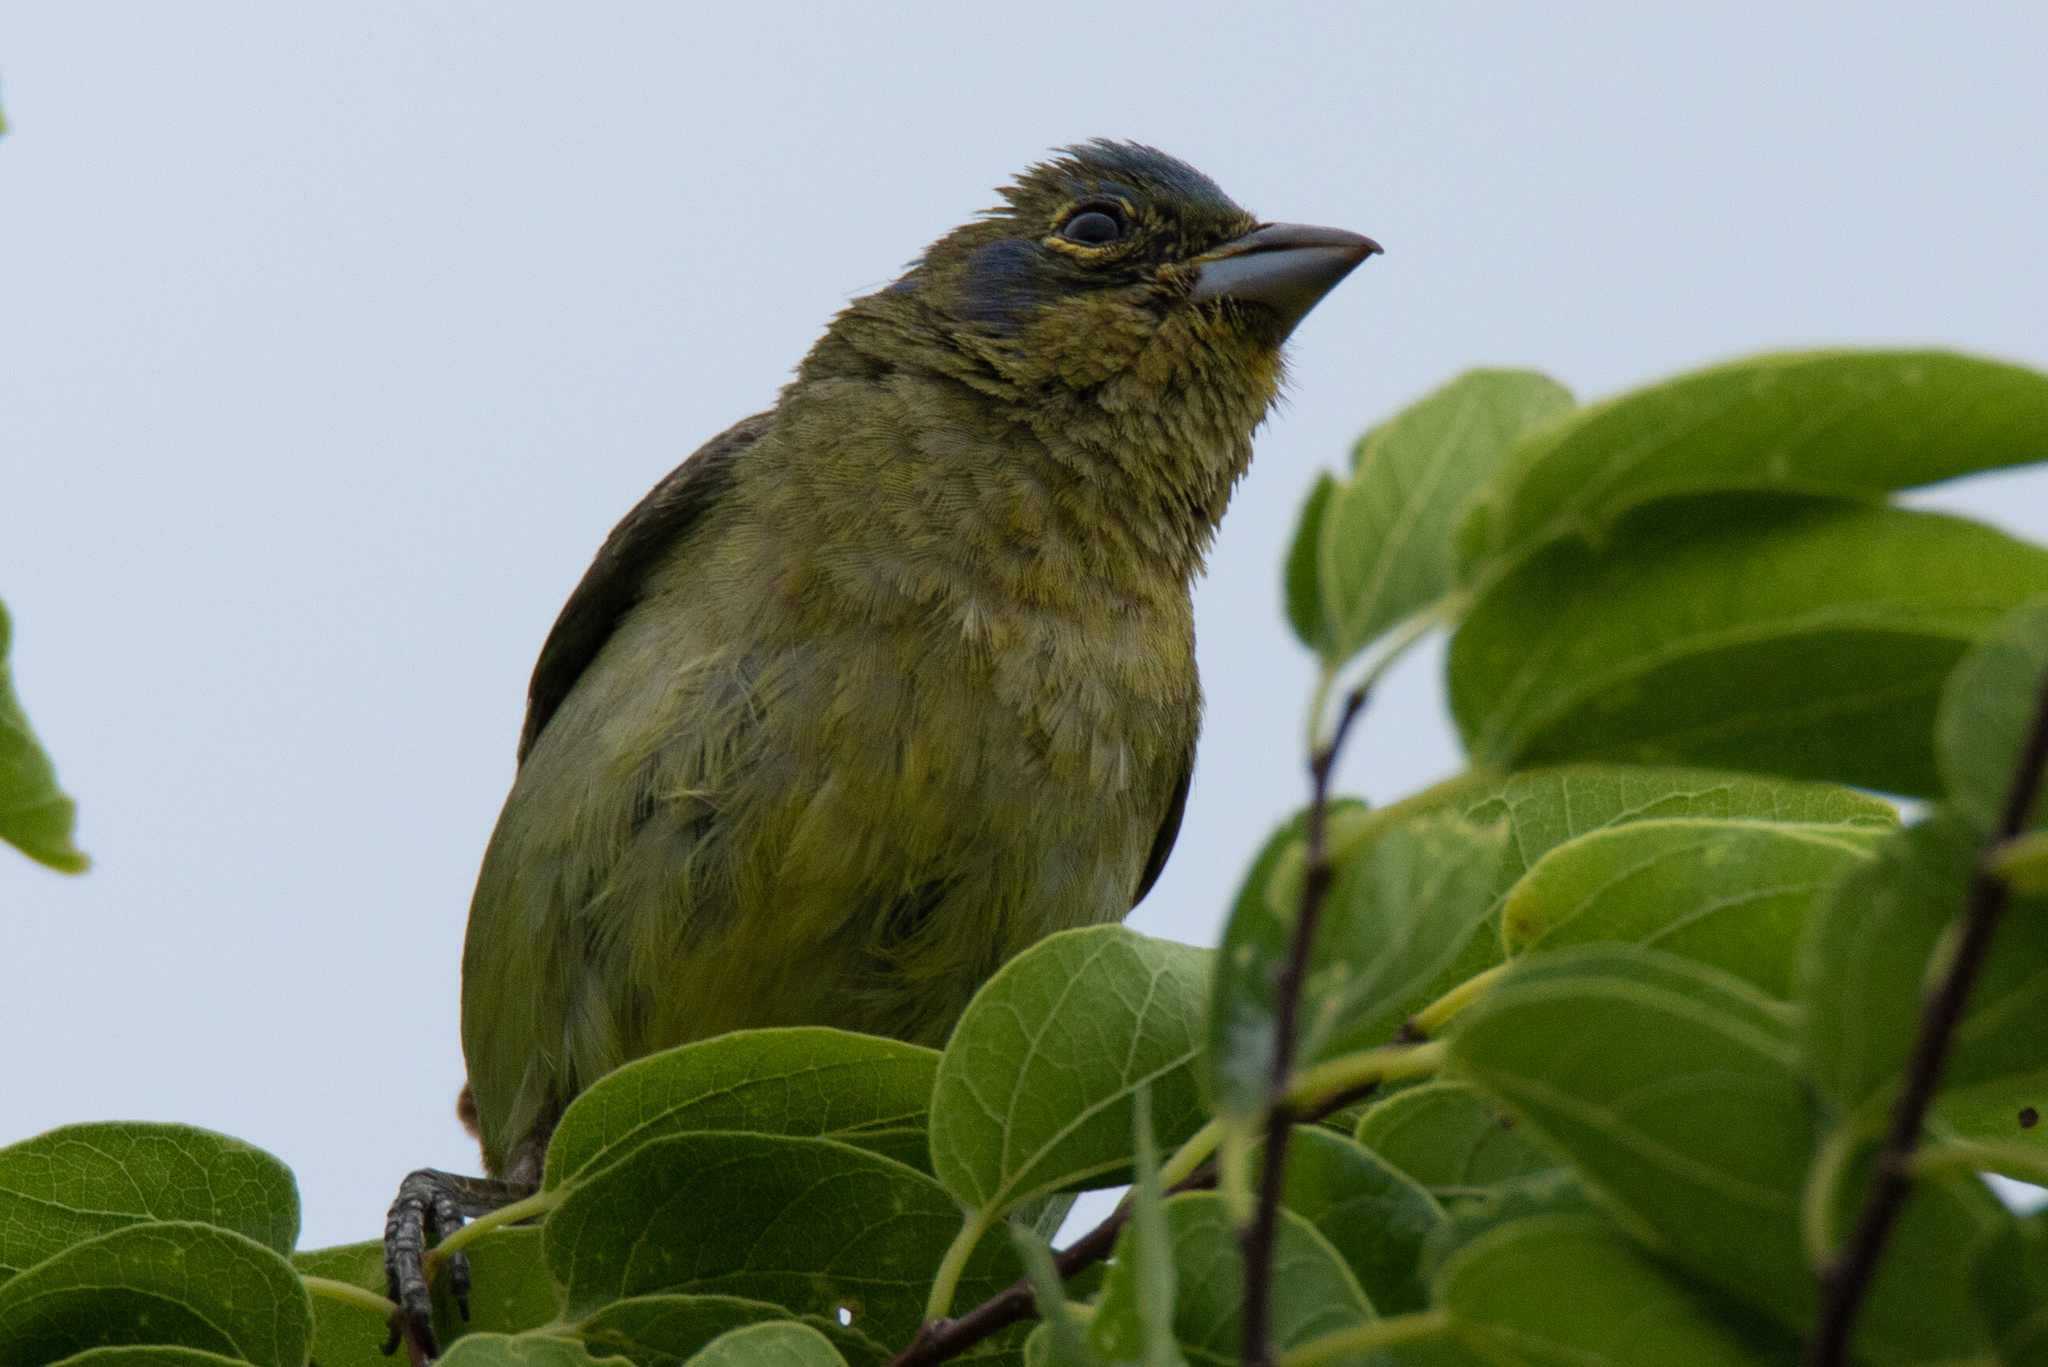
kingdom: Animalia
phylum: Chordata
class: Aves
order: Passeriformes
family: Cardinalidae
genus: Passerina
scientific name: Passerina ciris
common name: Painted bunting
